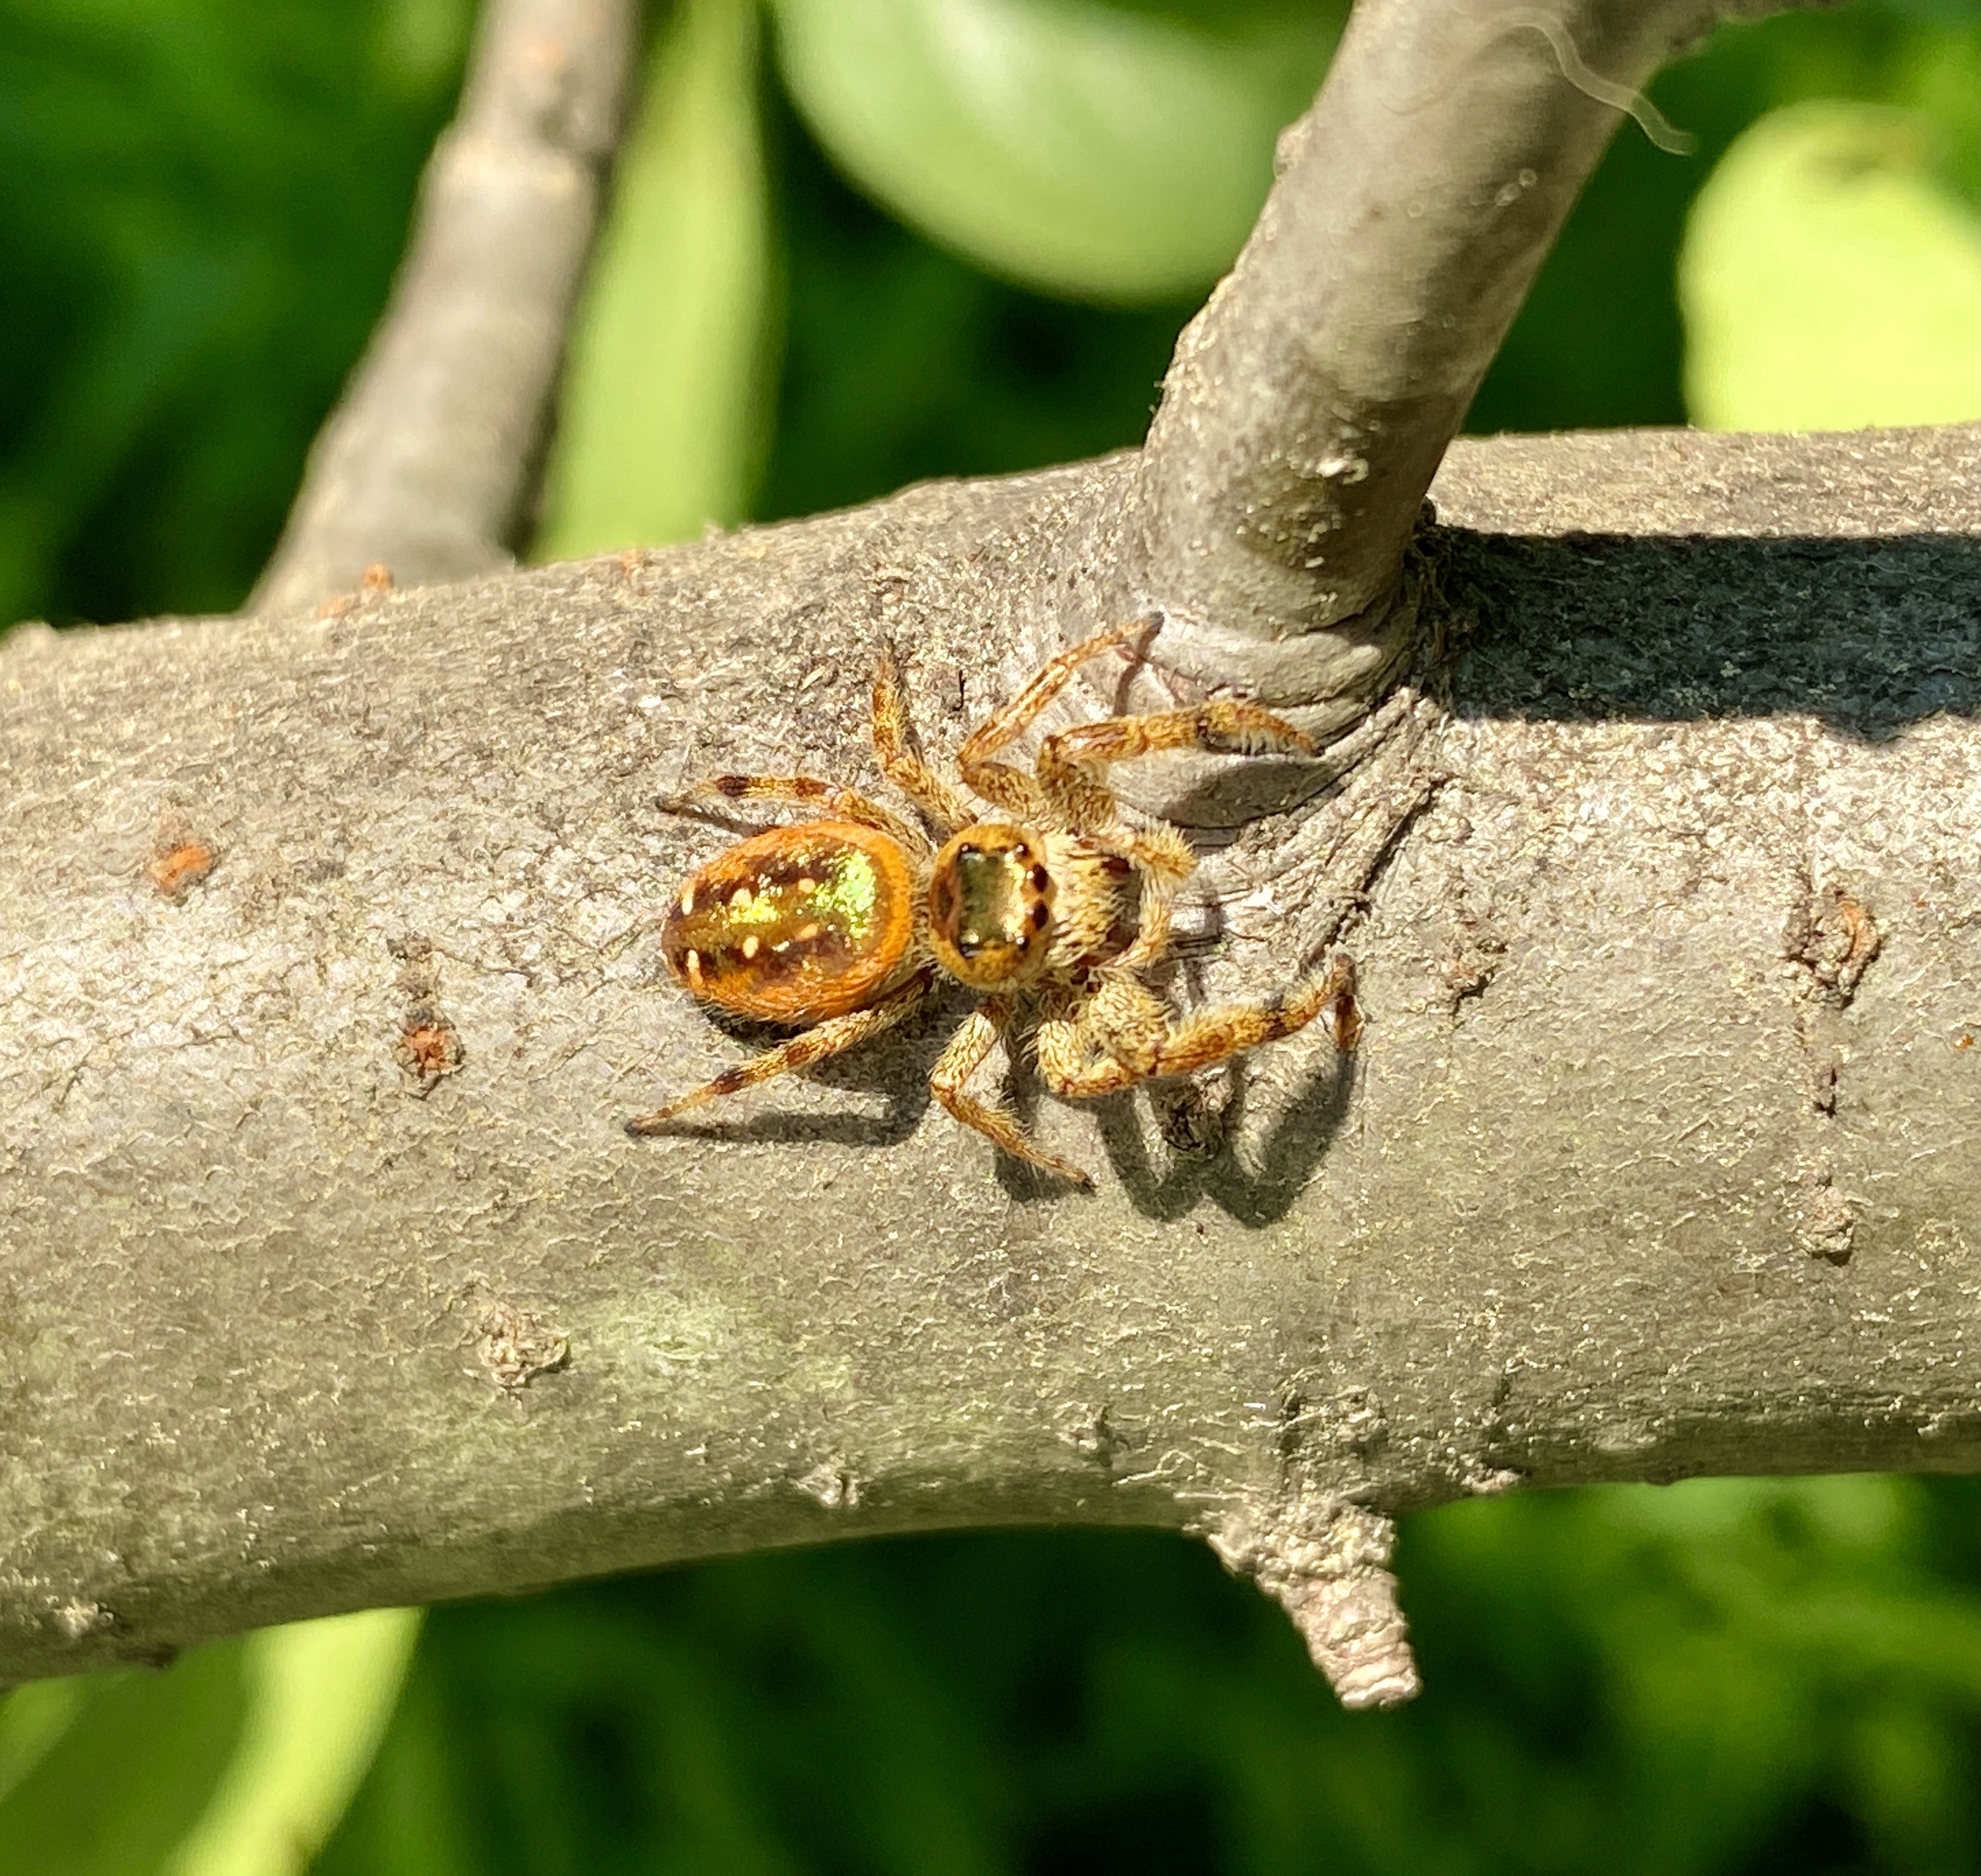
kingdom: Animalia
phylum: Arthropoda
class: Arachnida
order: Araneae
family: Salticidae
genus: Paraphidippus
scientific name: Paraphidippus aurantius
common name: Jumping spiders
